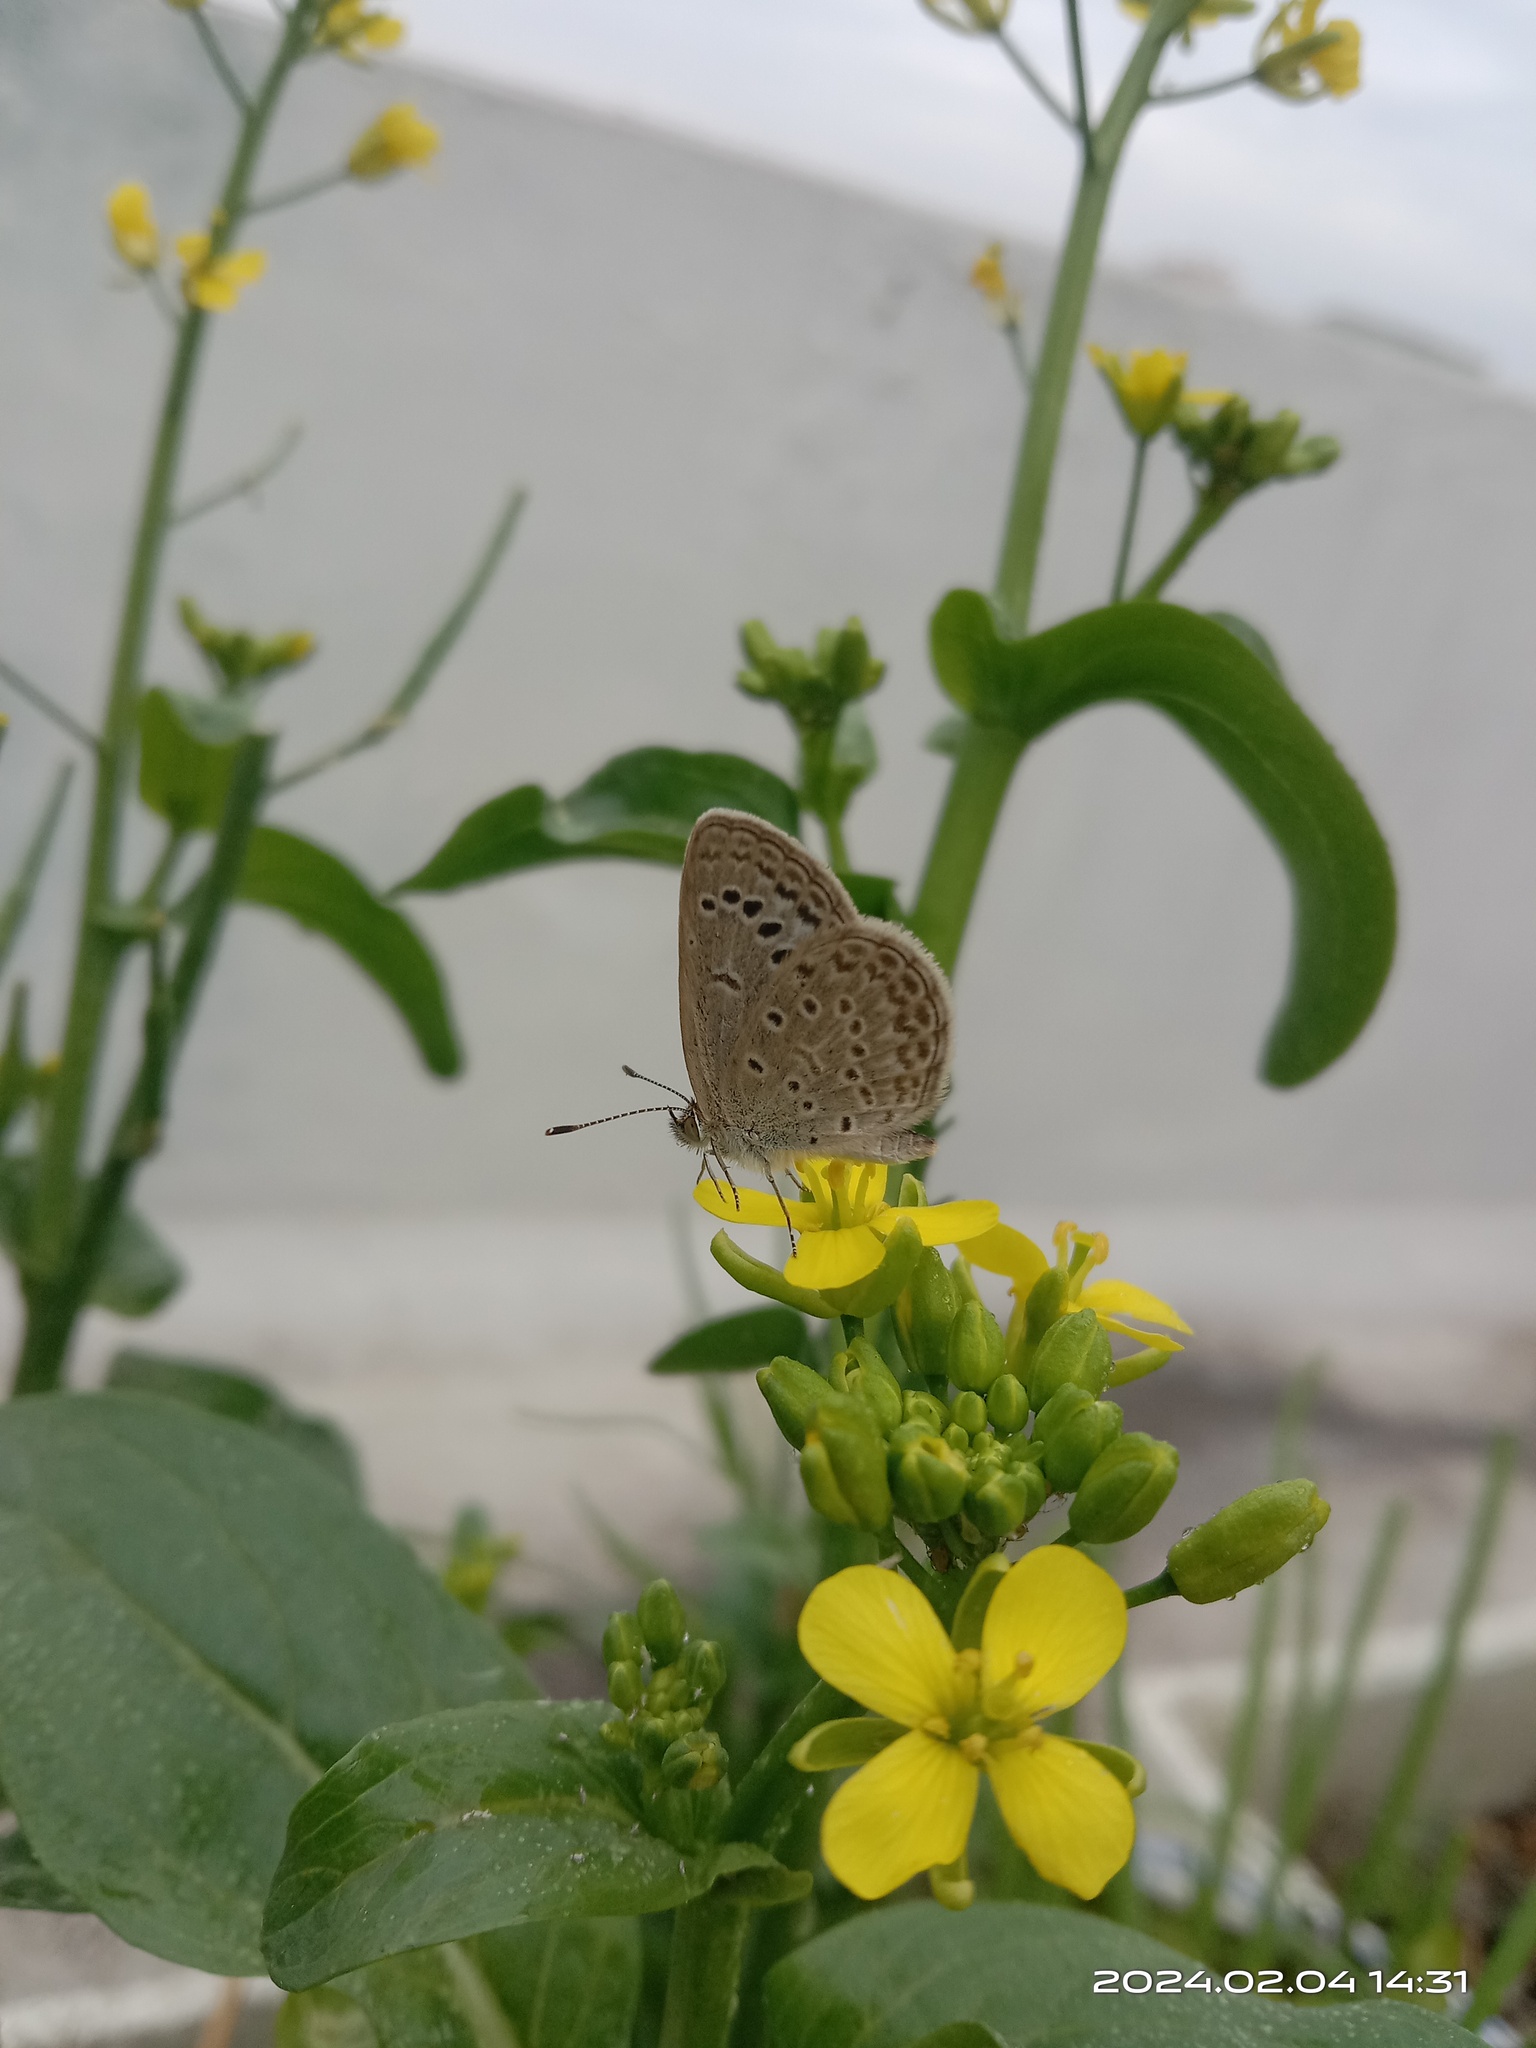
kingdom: Animalia
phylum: Arthropoda
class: Insecta
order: Lepidoptera
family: Lycaenidae
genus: Pseudozizeeria
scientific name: Pseudozizeeria maha
